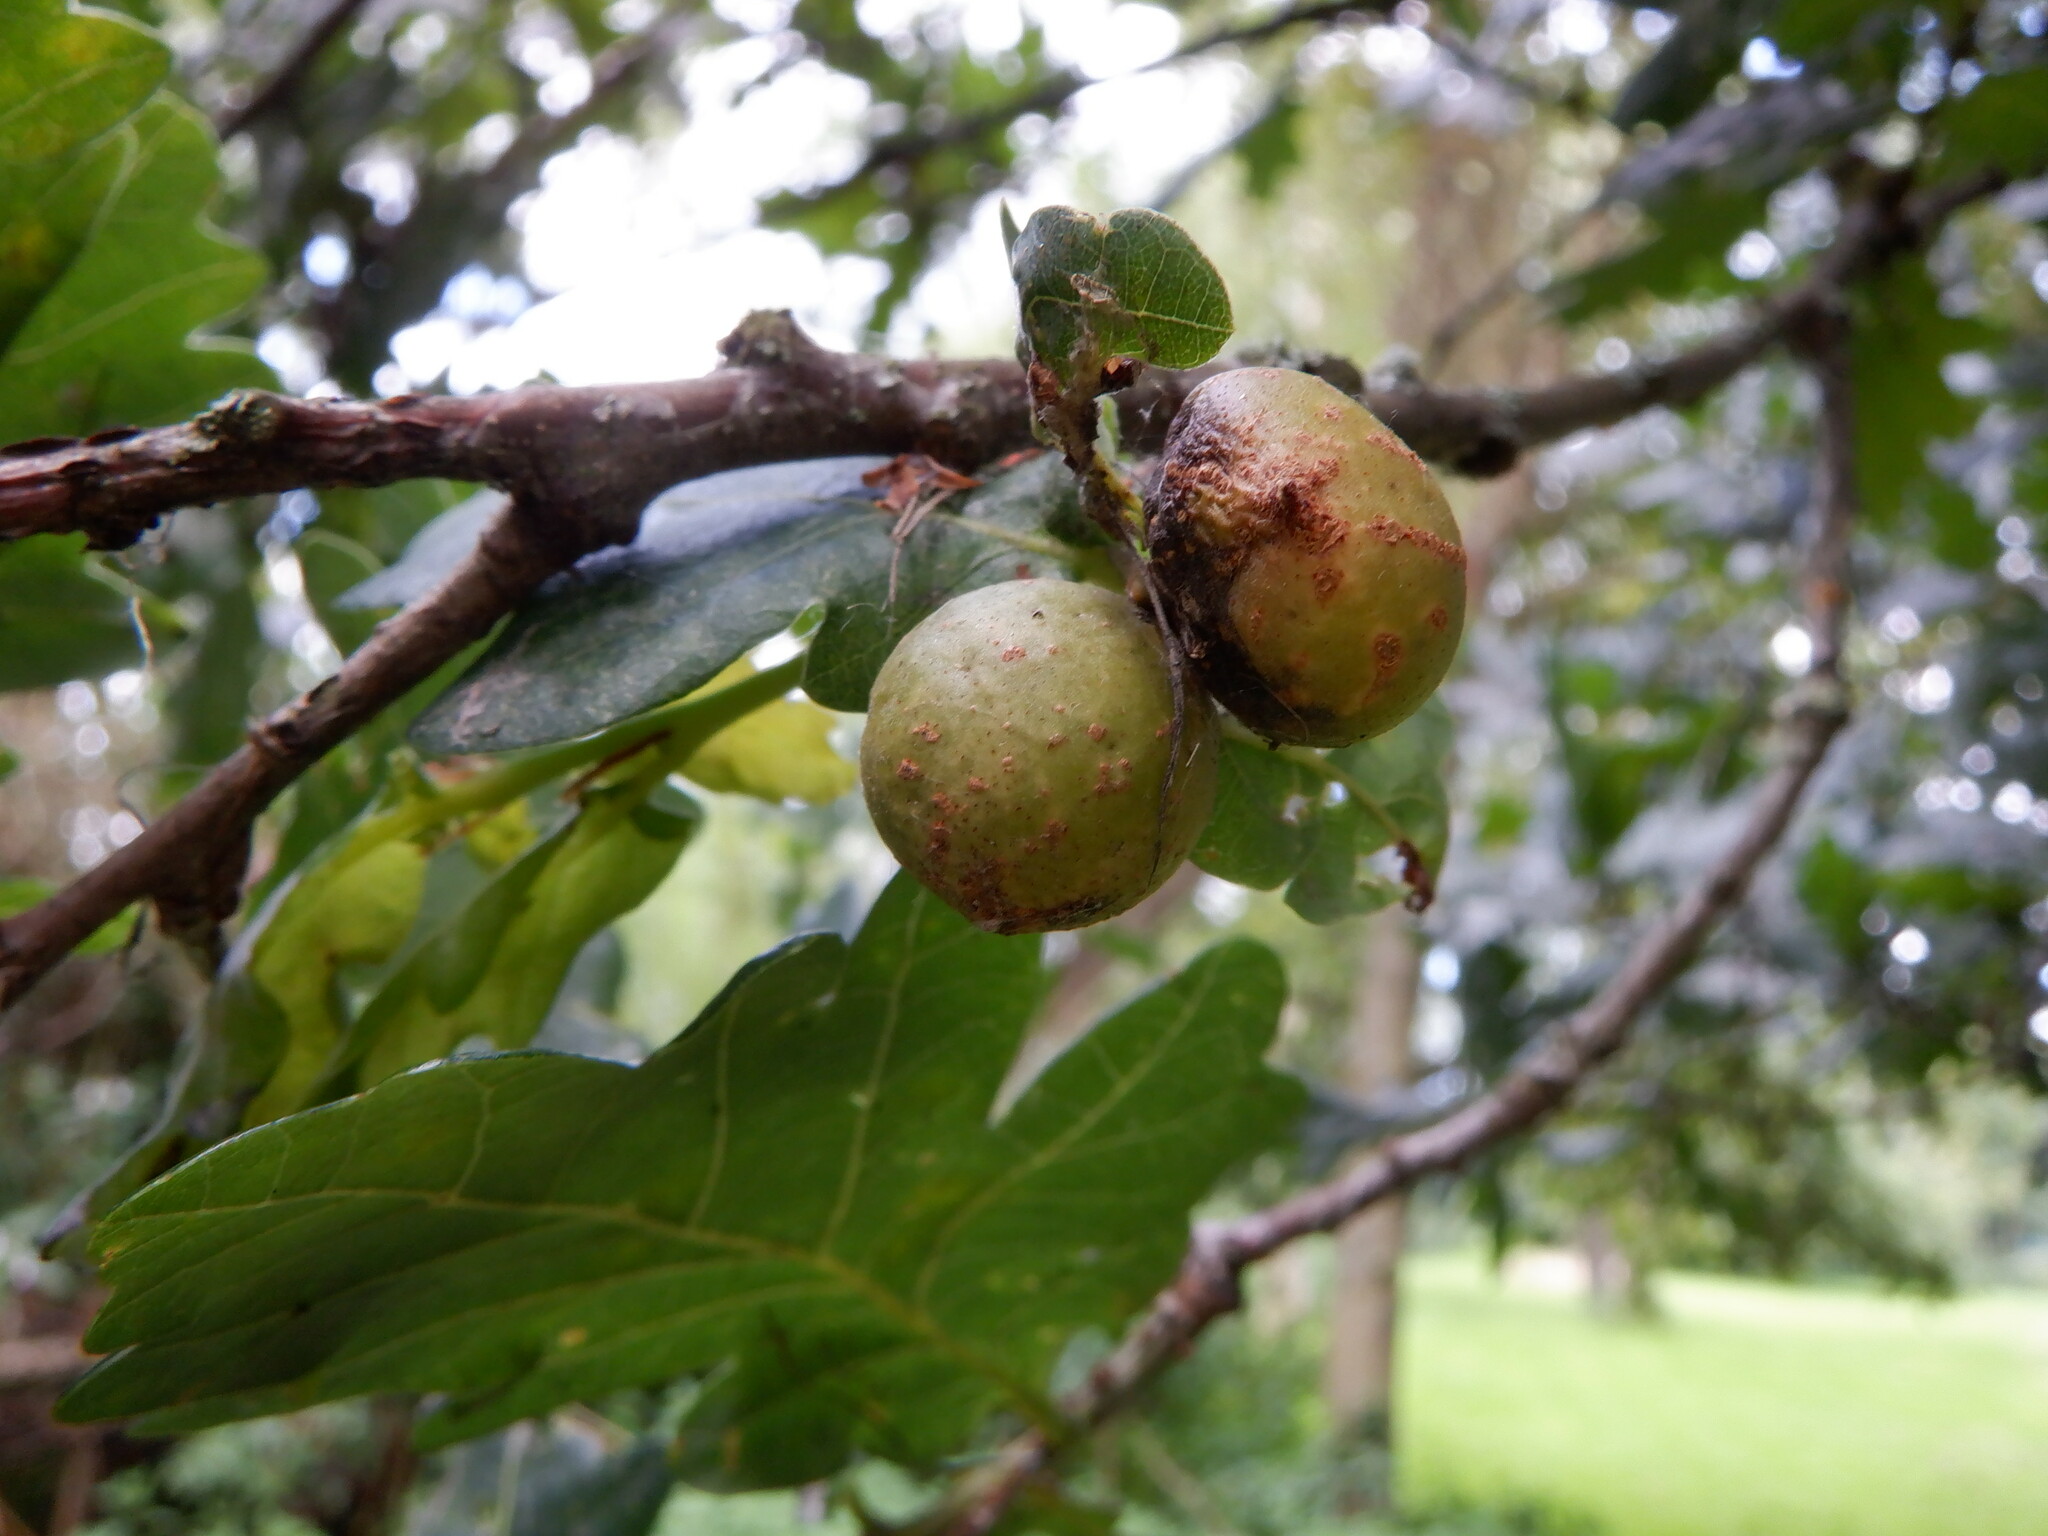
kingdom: Animalia
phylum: Arthropoda
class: Insecta
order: Hymenoptera
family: Cynipidae
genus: Andricus
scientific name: Andricus kollari
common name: Marble gall
